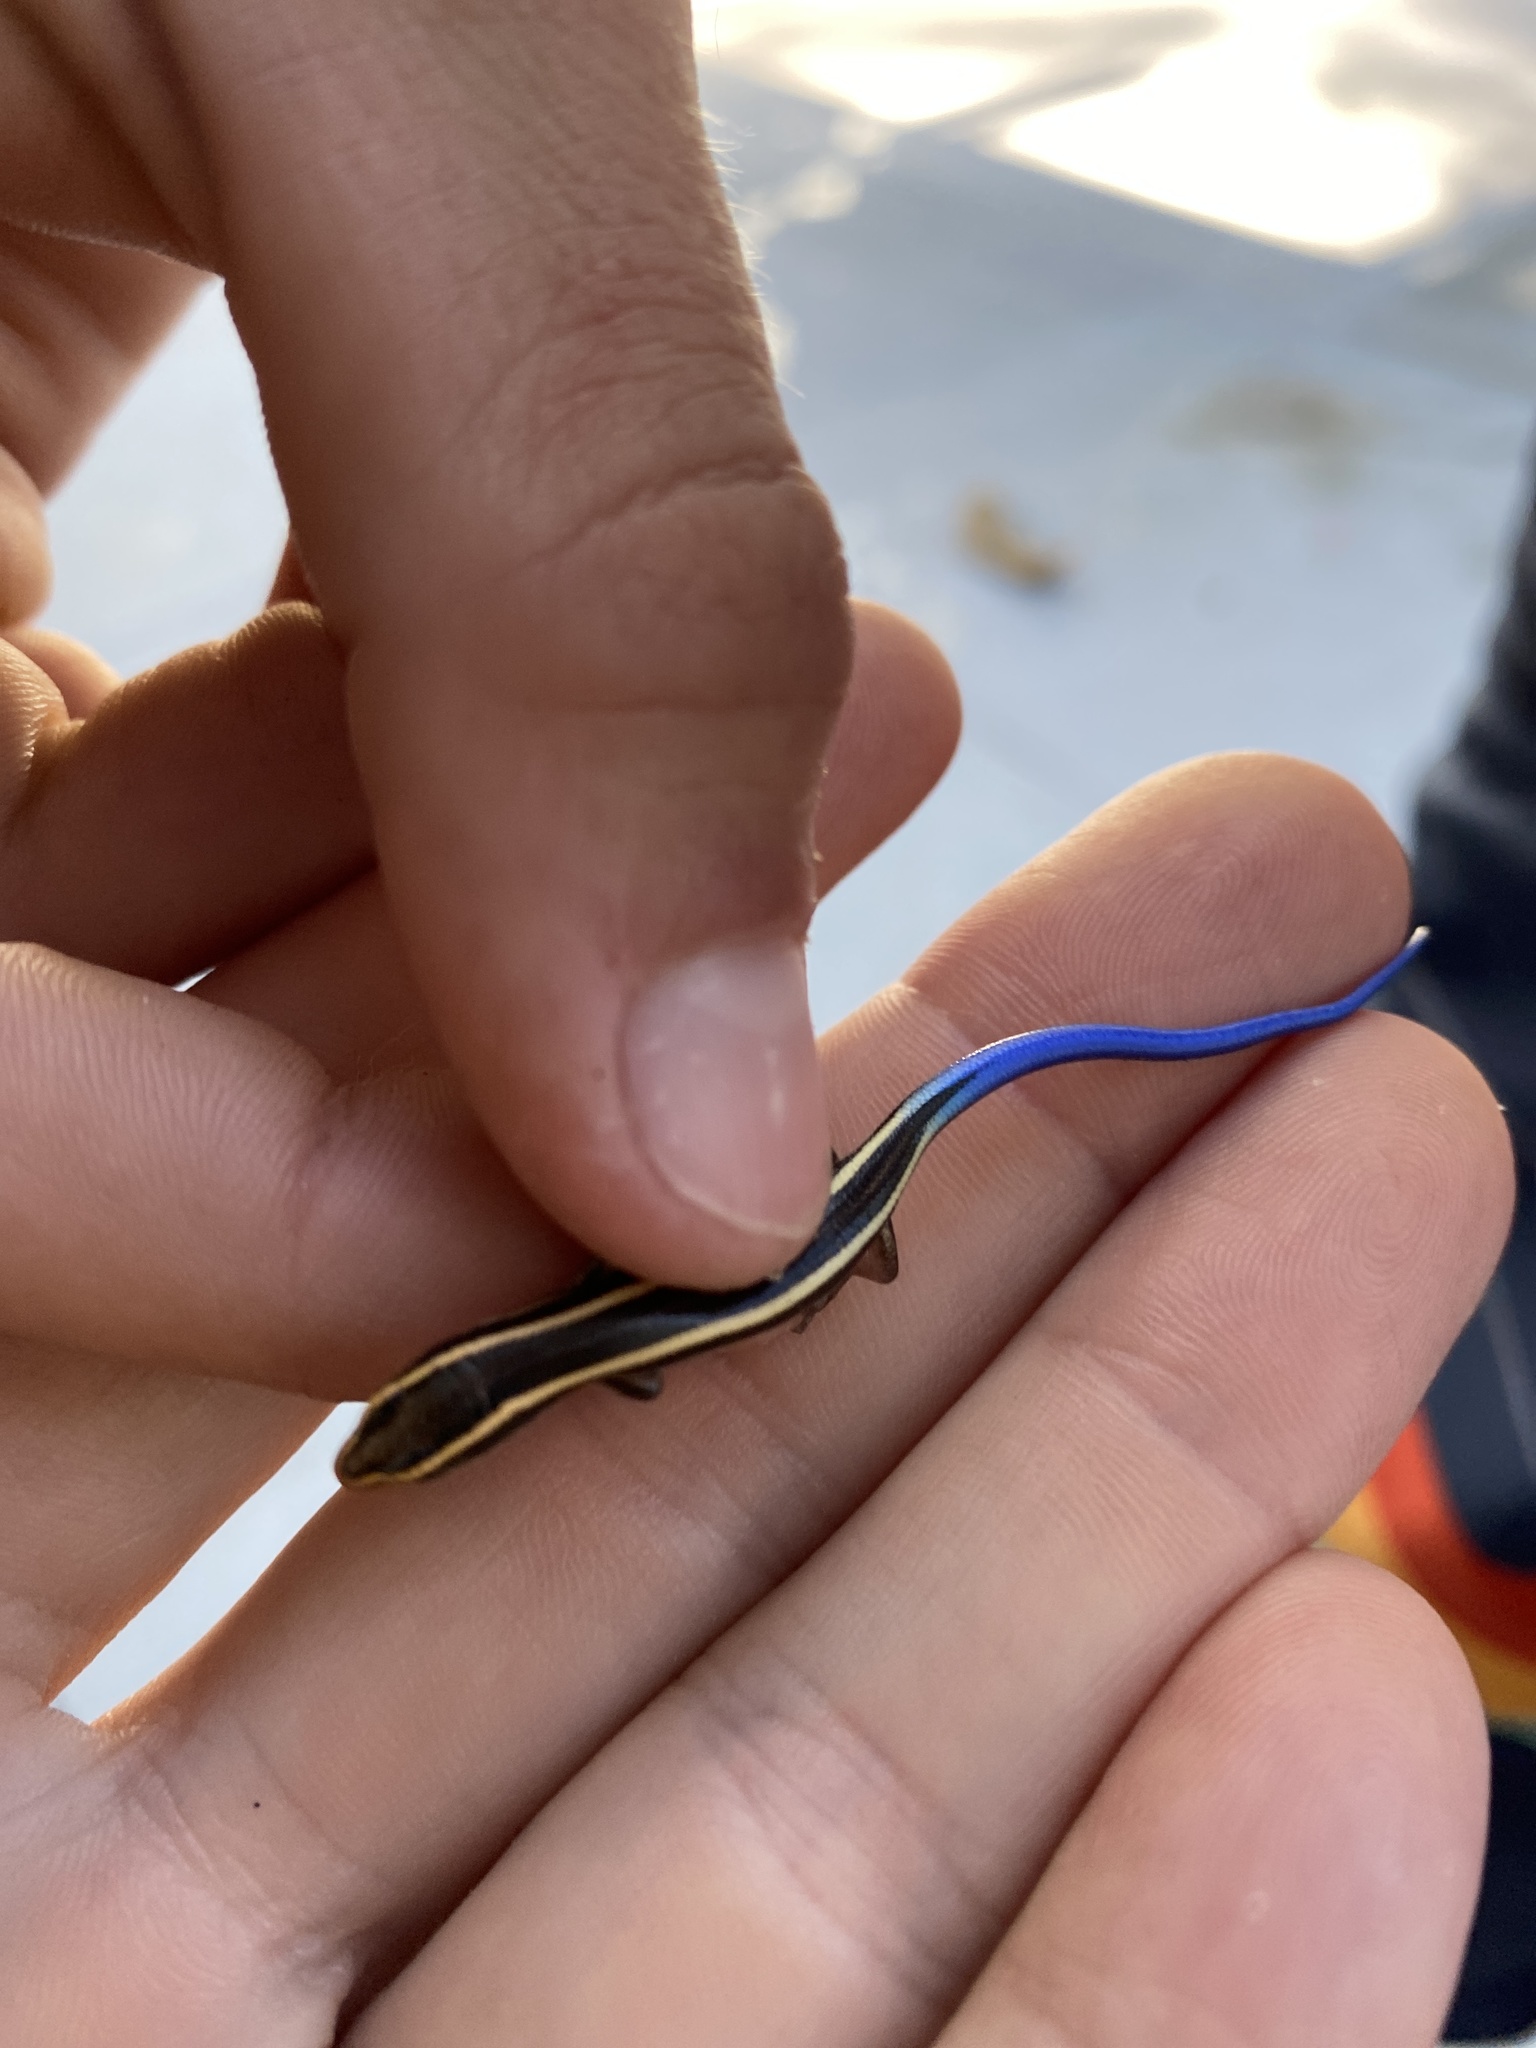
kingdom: Animalia
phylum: Chordata
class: Squamata
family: Scincidae
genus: Plestiodon
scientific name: Plestiodon skiltonianus
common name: Coronado island skink [interparietalis]
